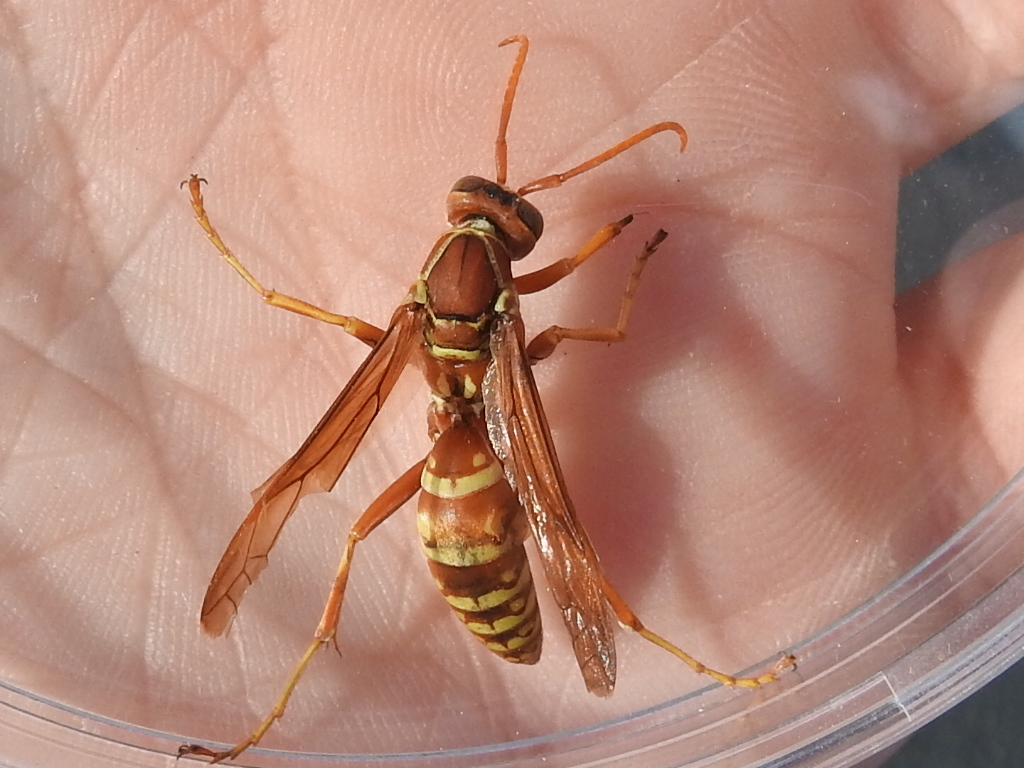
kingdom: Animalia
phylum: Arthropoda
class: Insecta
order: Hymenoptera
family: Eumenidae
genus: Polistes
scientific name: Polistes apachus
